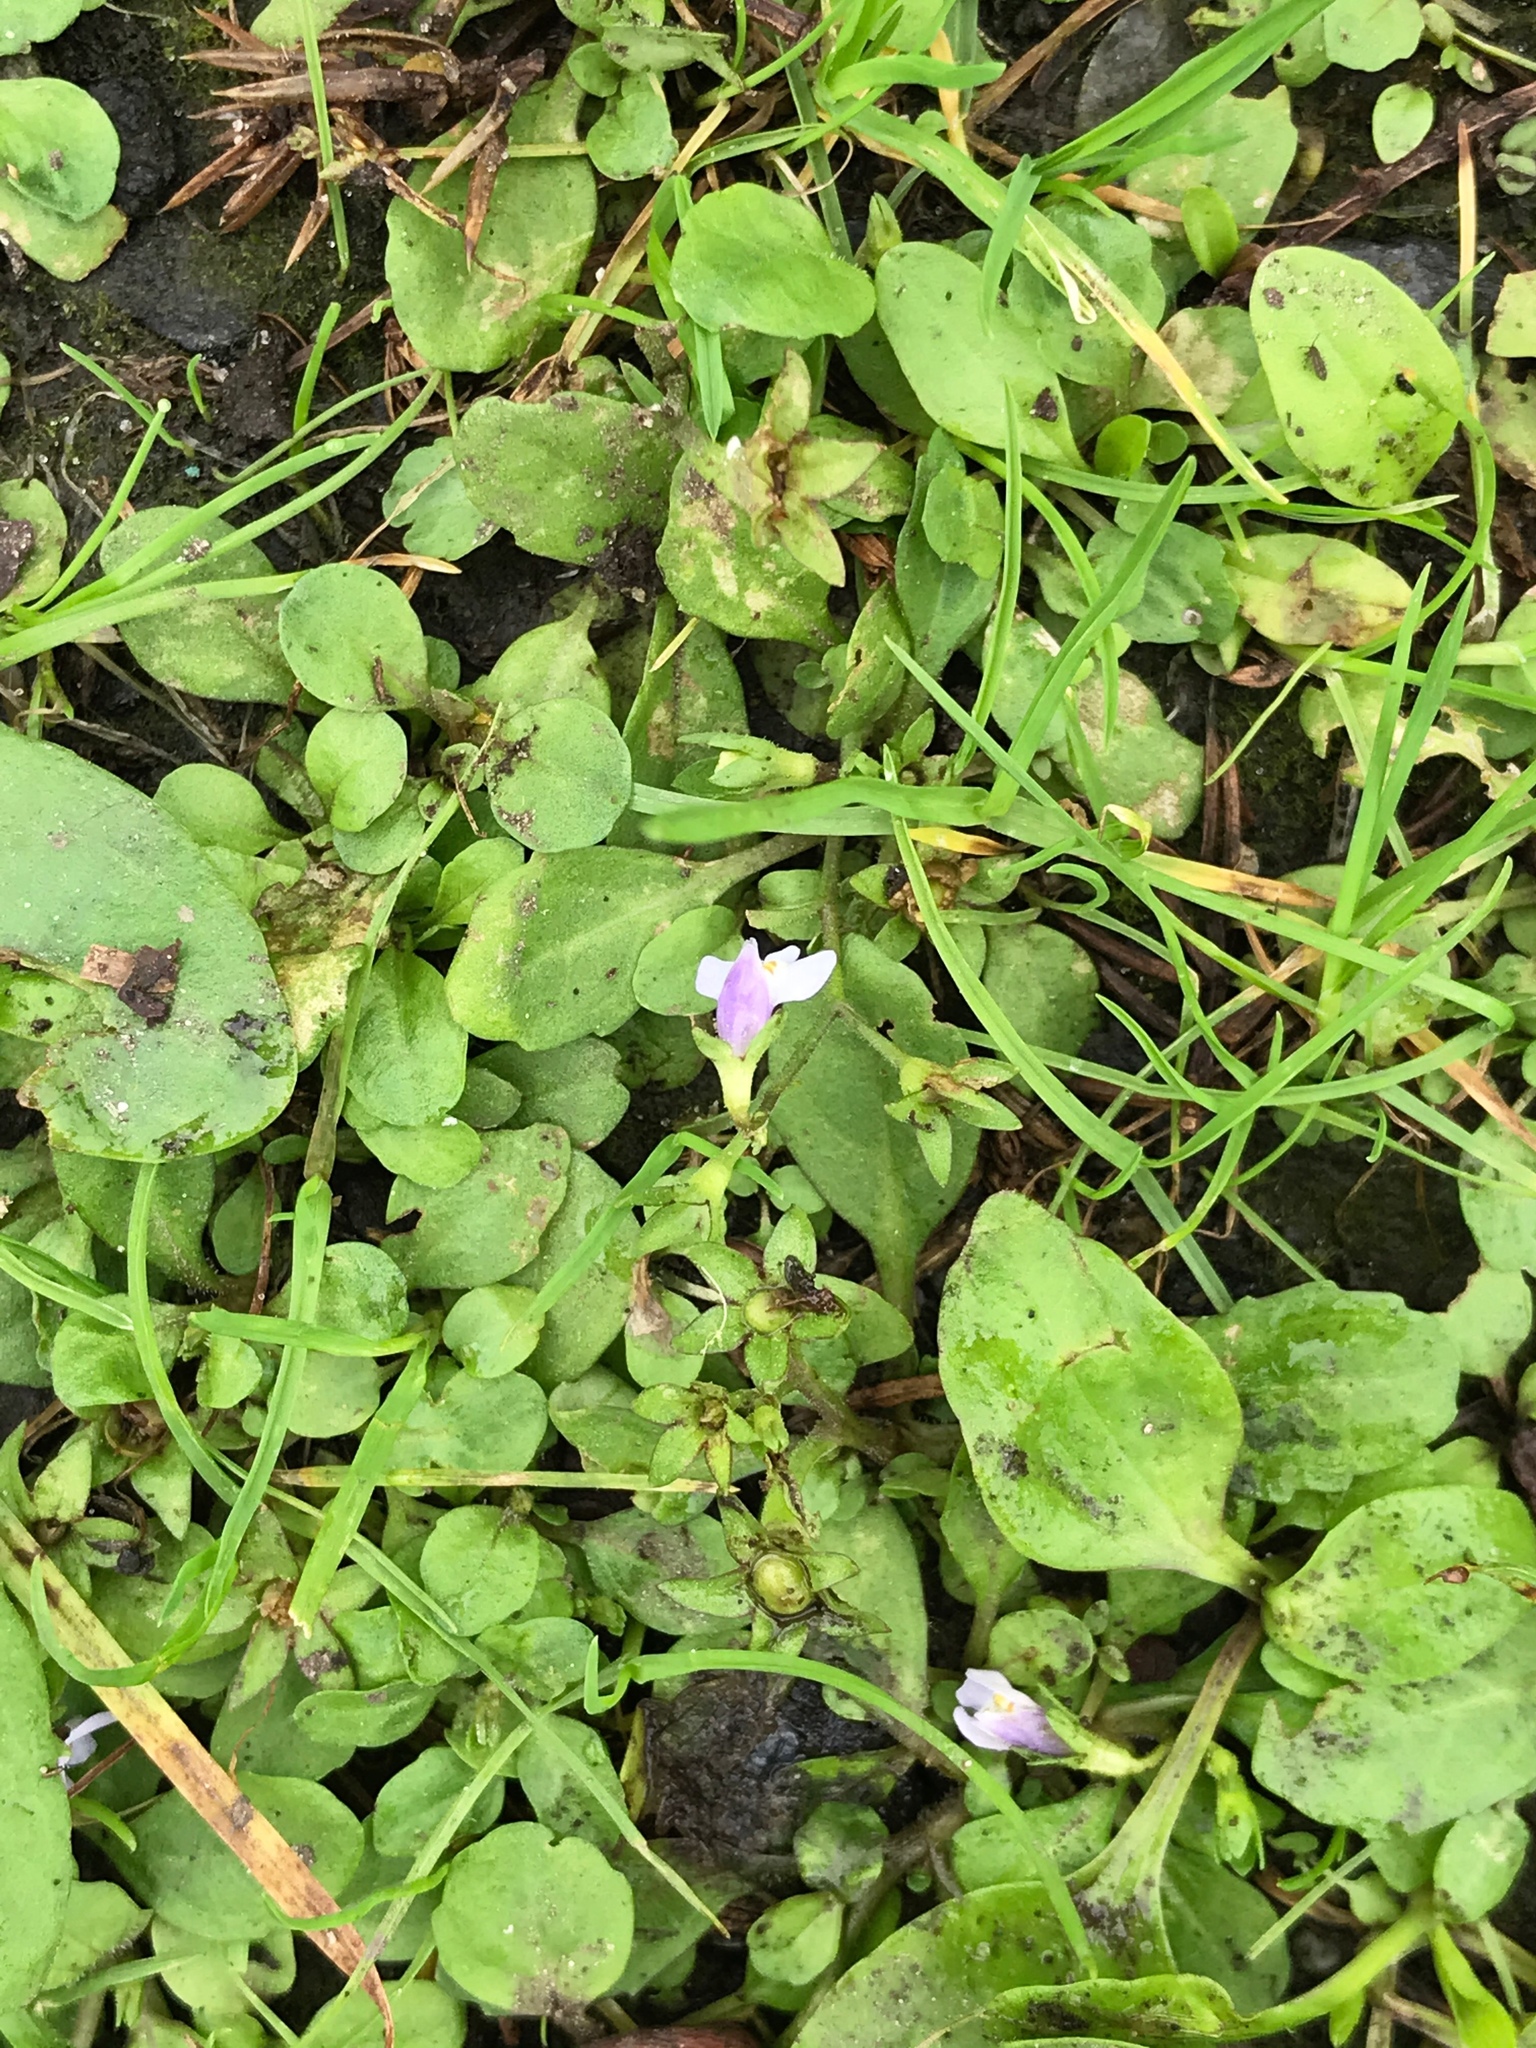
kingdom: Plantae
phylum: Tracheophyta
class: Magnoliopsida
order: Lamiales
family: Mazaceae
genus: Mazus
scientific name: Mazus pumilus
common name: Japanese mazus
